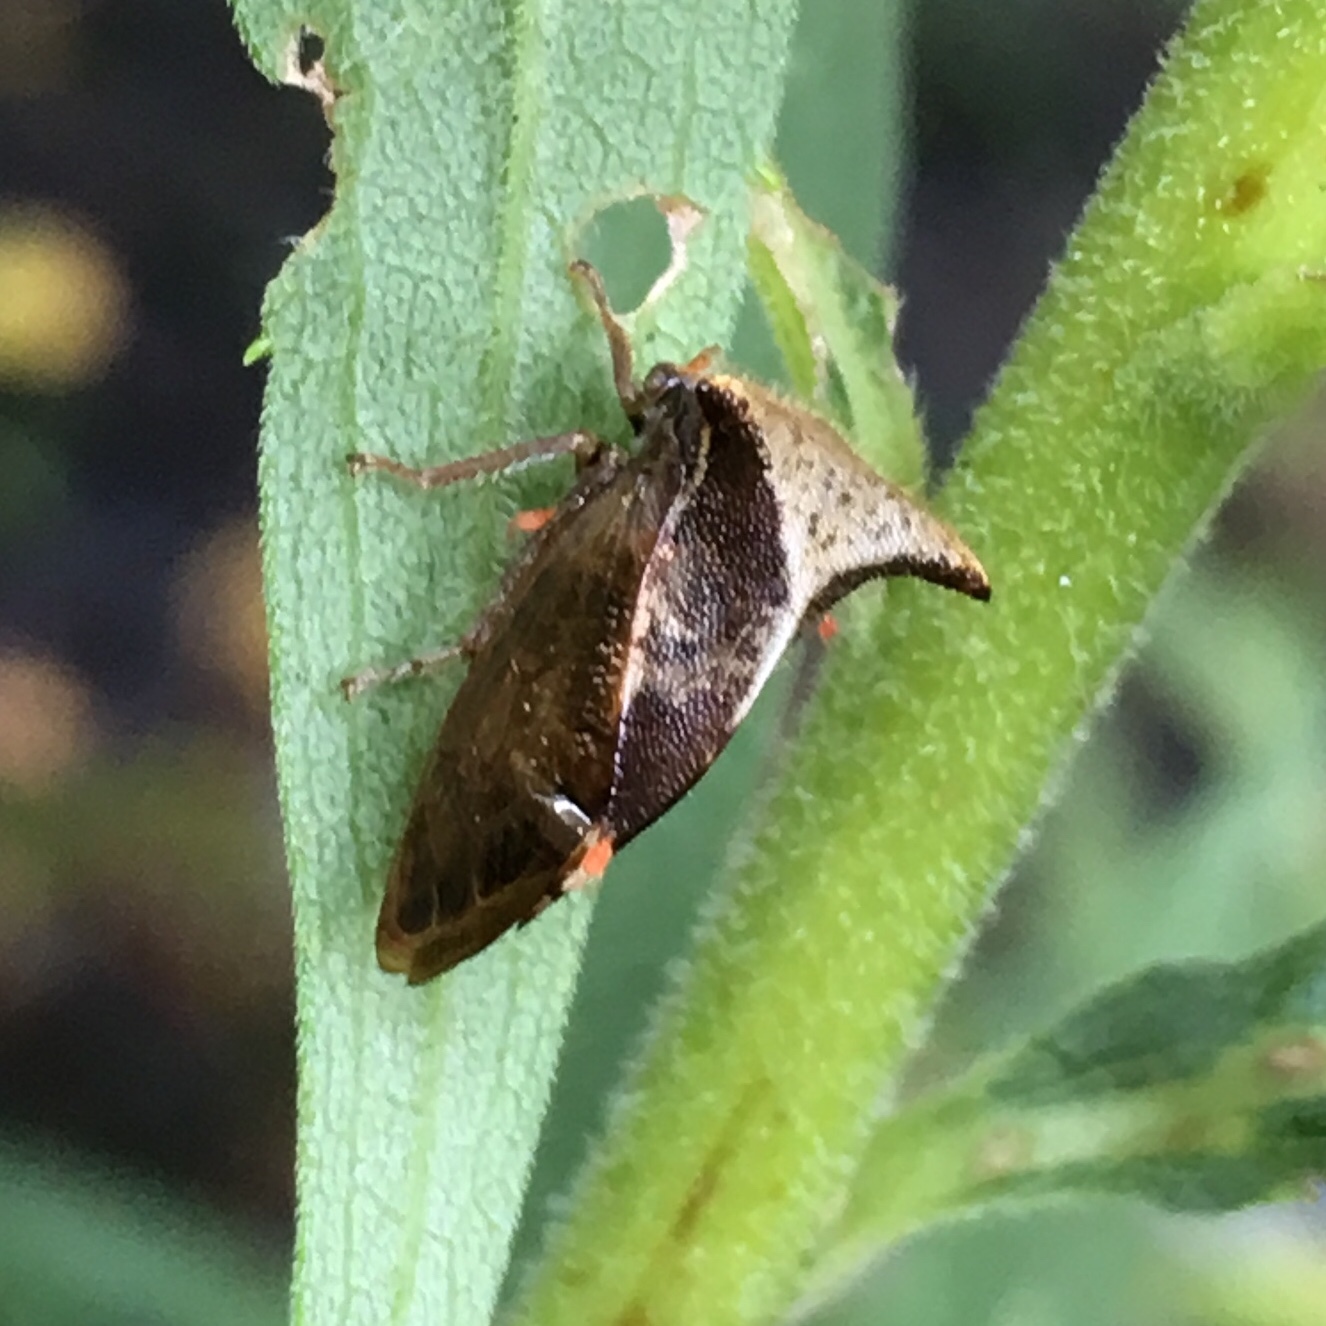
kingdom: Animalia
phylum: Arthropoda
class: Insecta
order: Hemiptera
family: Membracidae
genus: Stictocephala
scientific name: Stictocephala diceros
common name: Two-horned treehopper
